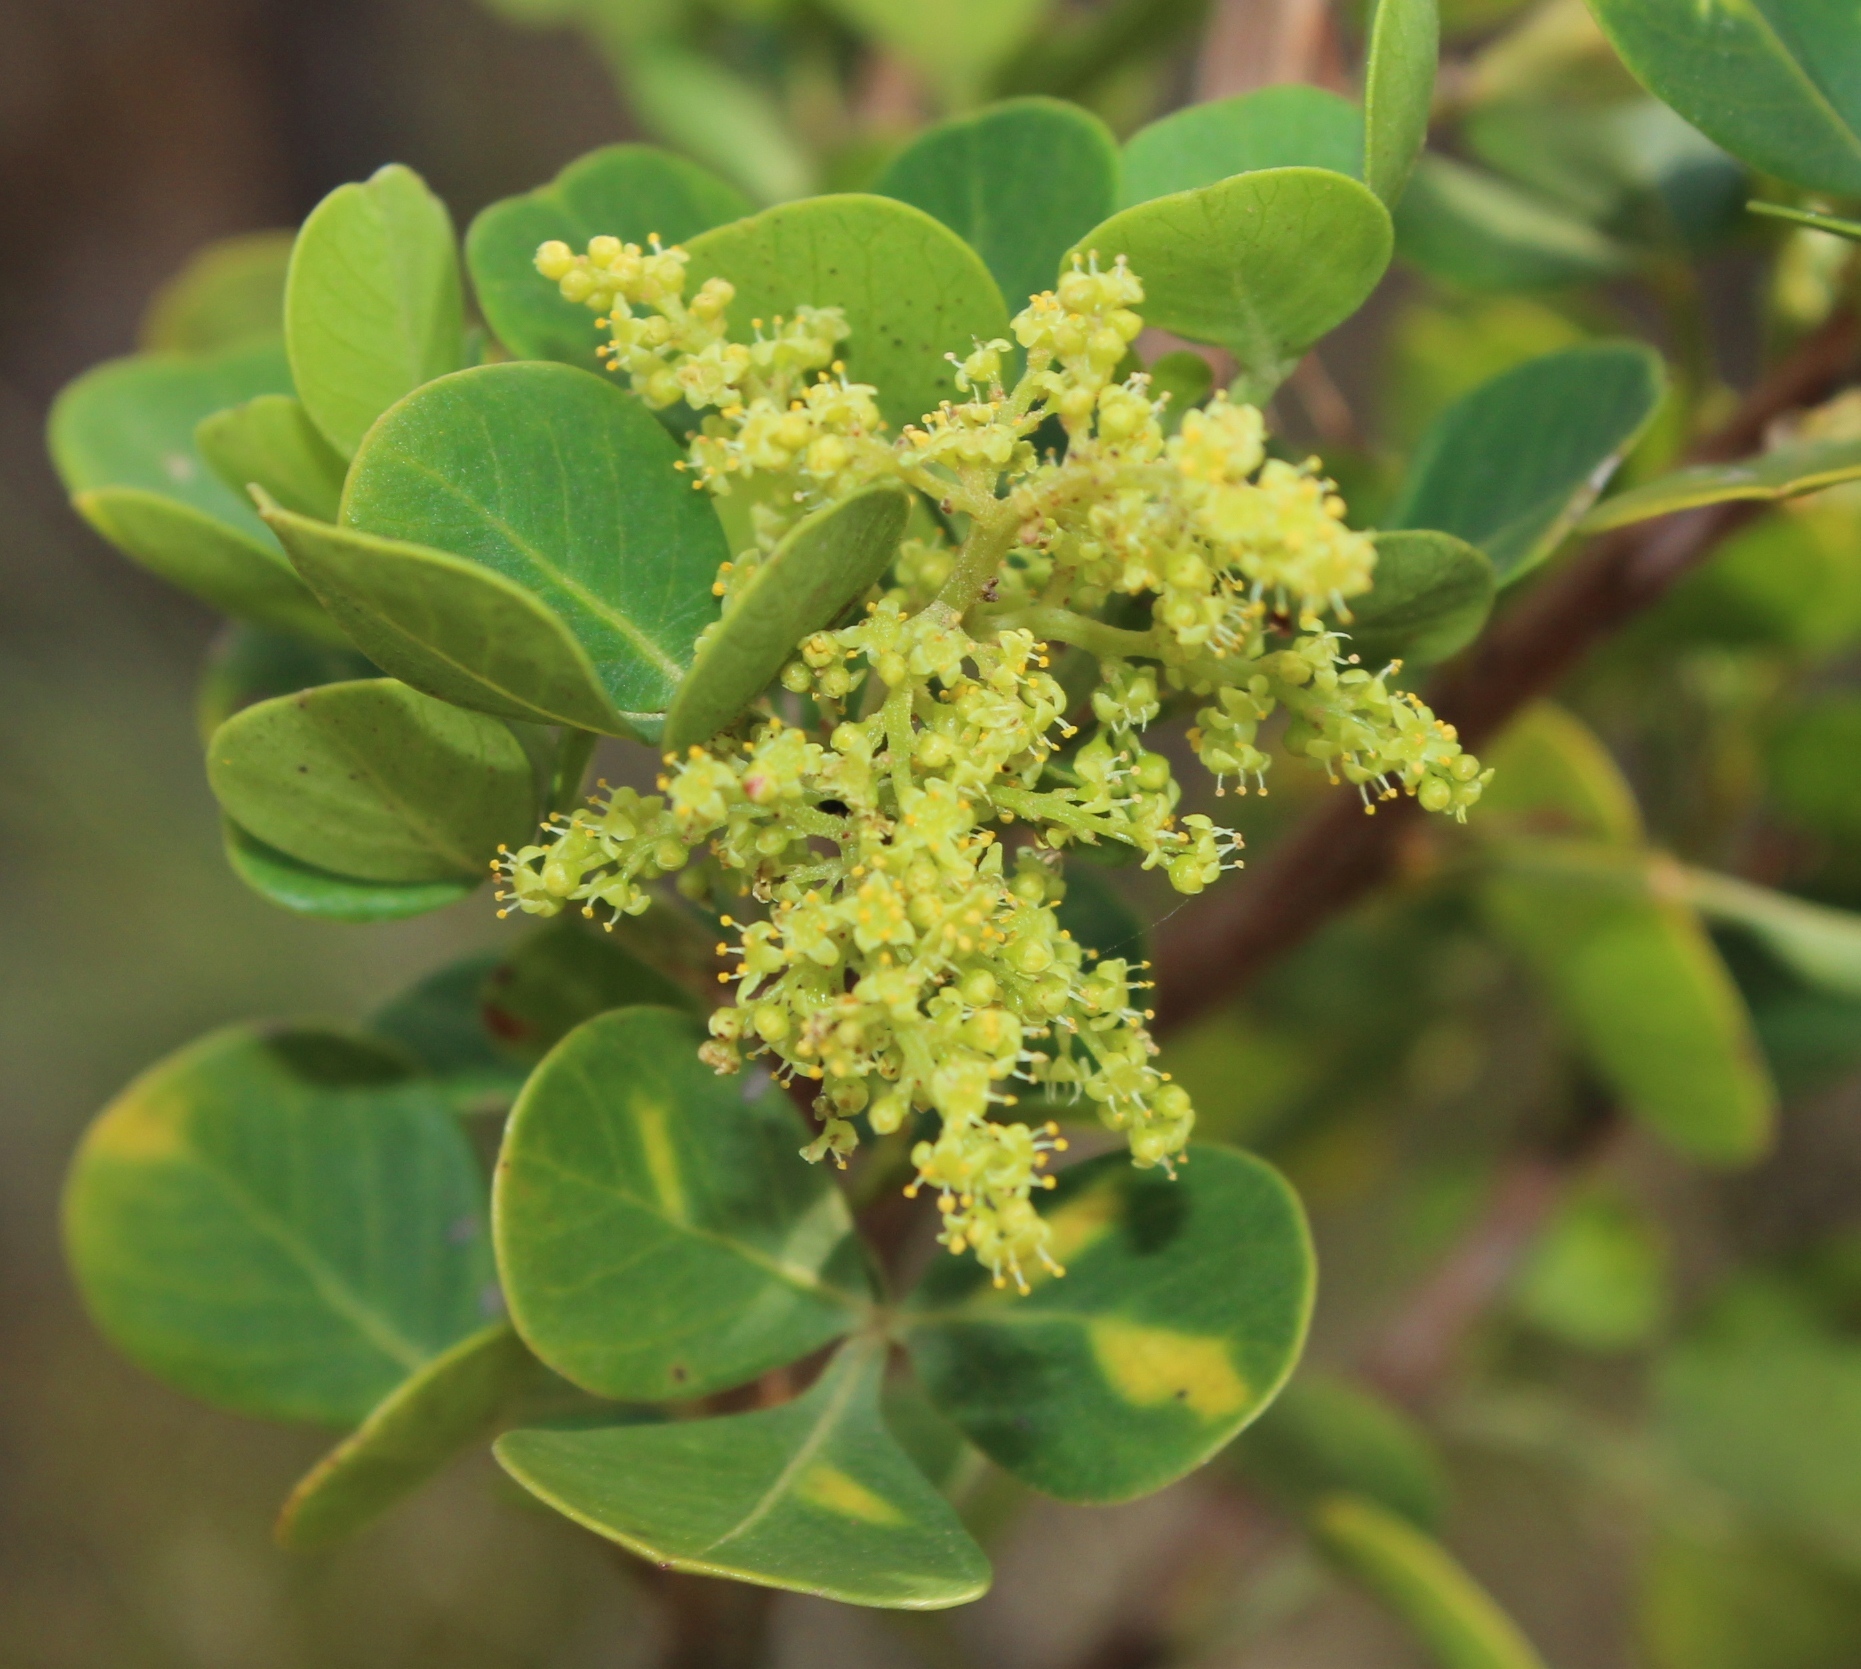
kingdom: Plantae
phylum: Tracheophyta
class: Magnoliopsida
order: Sapindales
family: Anacardiaceae
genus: Searsia
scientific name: Searsia lucida
